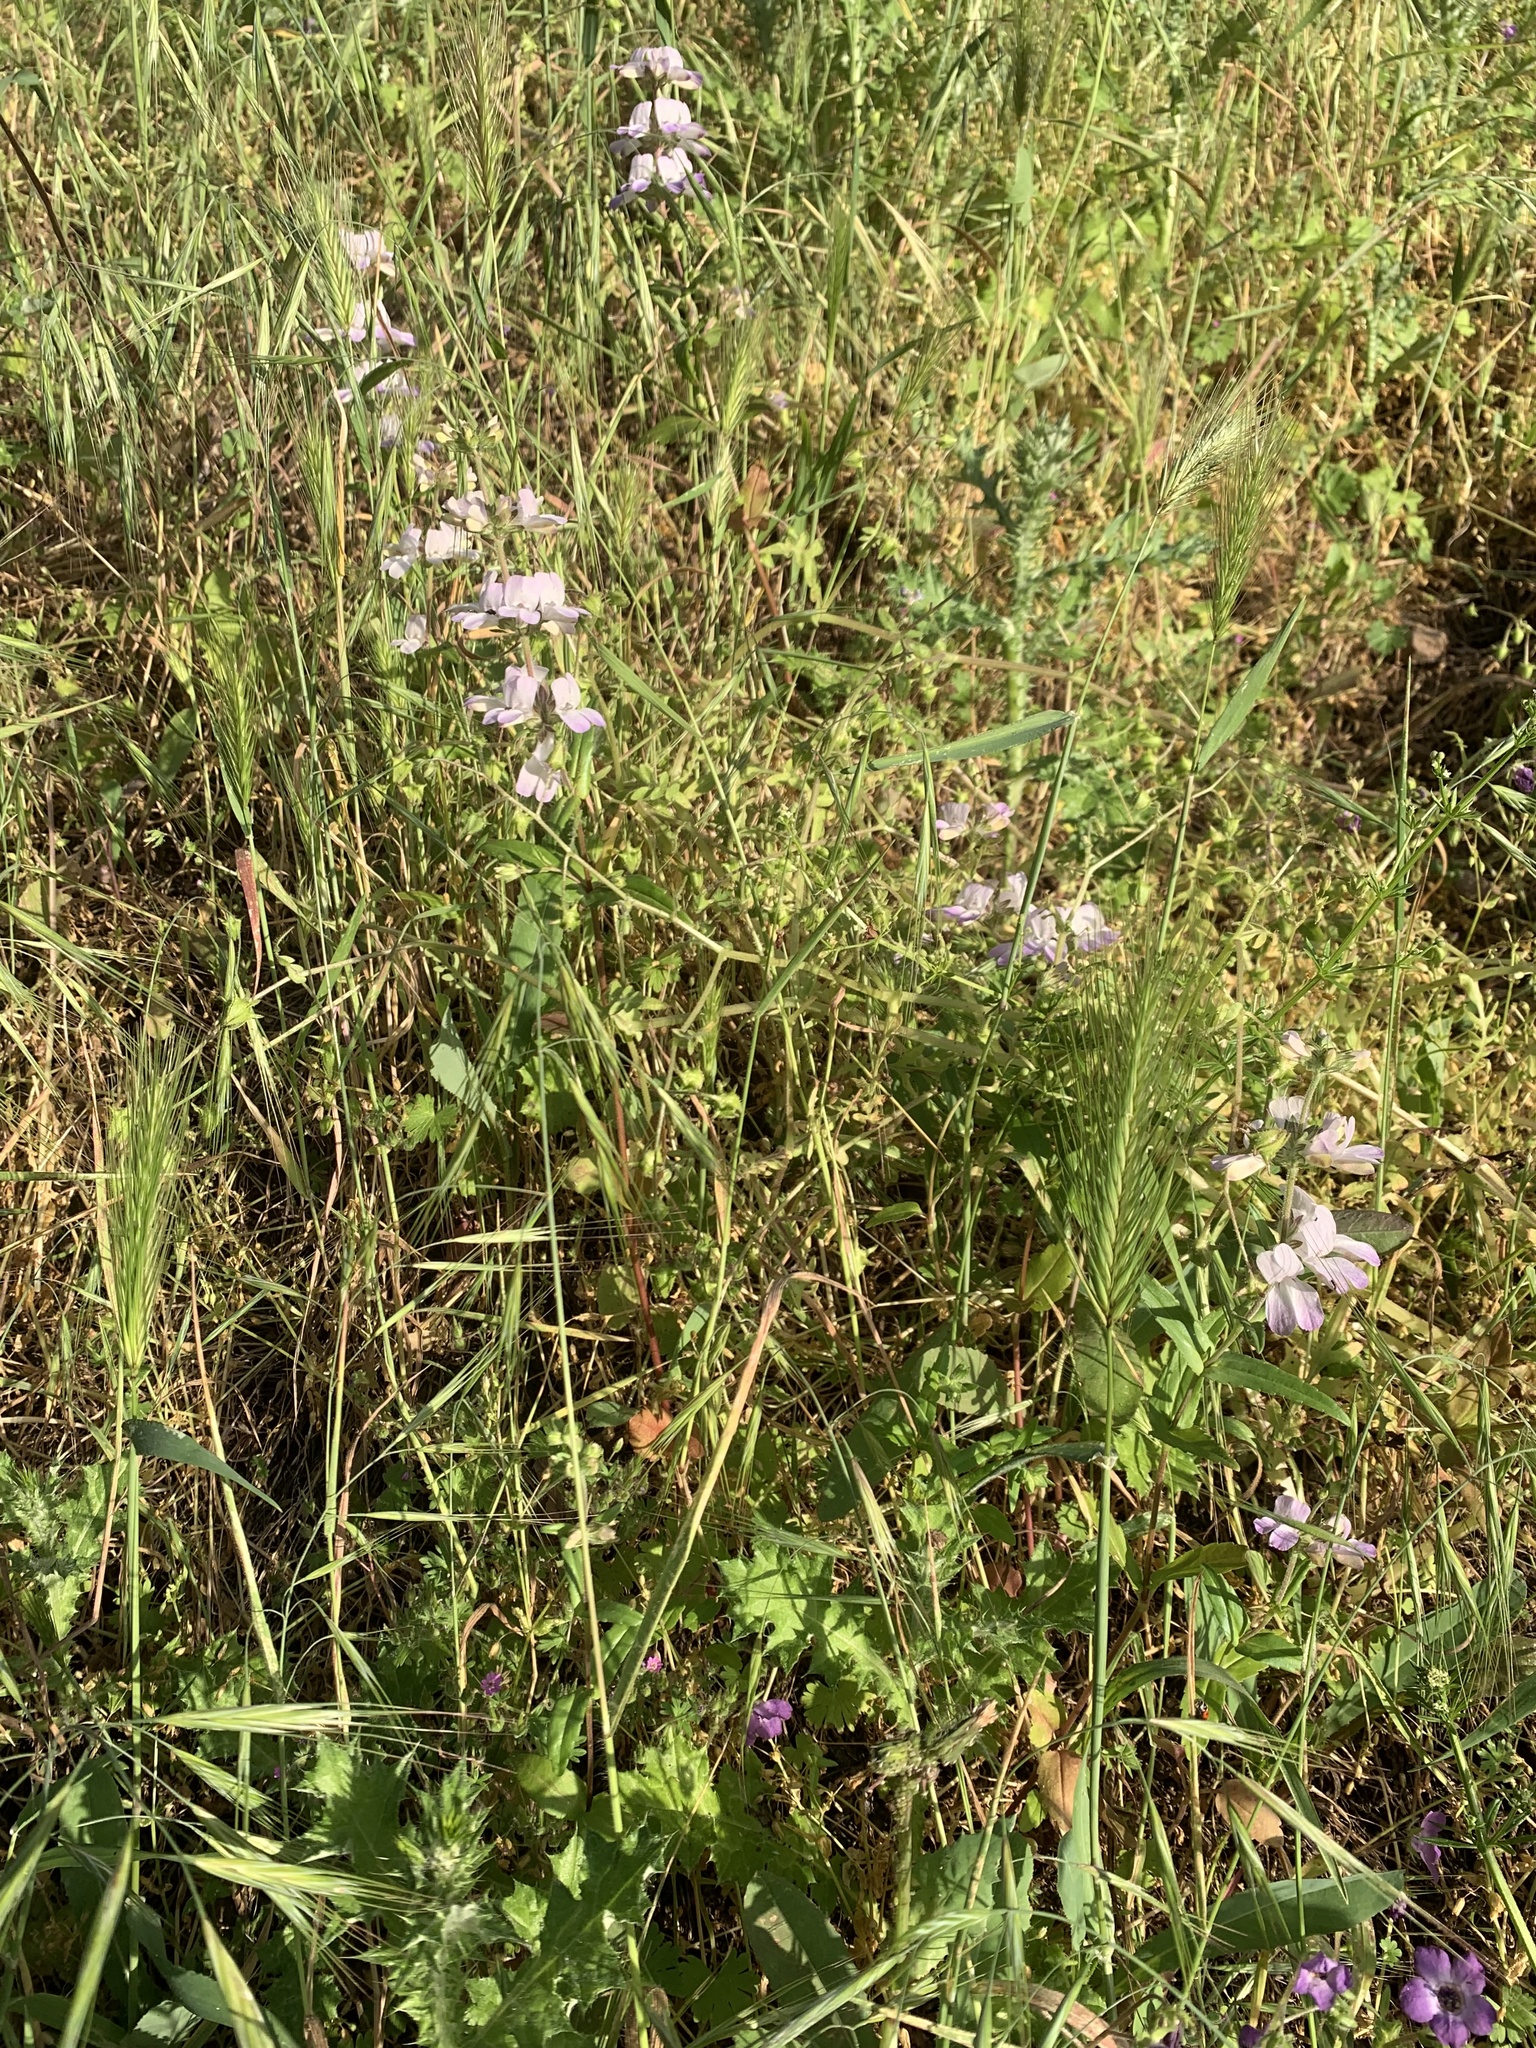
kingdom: Plantae
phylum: Tracheophyta
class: Magnoliopsida
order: Lamiales
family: Plantaginaceae
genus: Collinsia
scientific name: Collinsia heterophylla
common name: Chinese-houses
